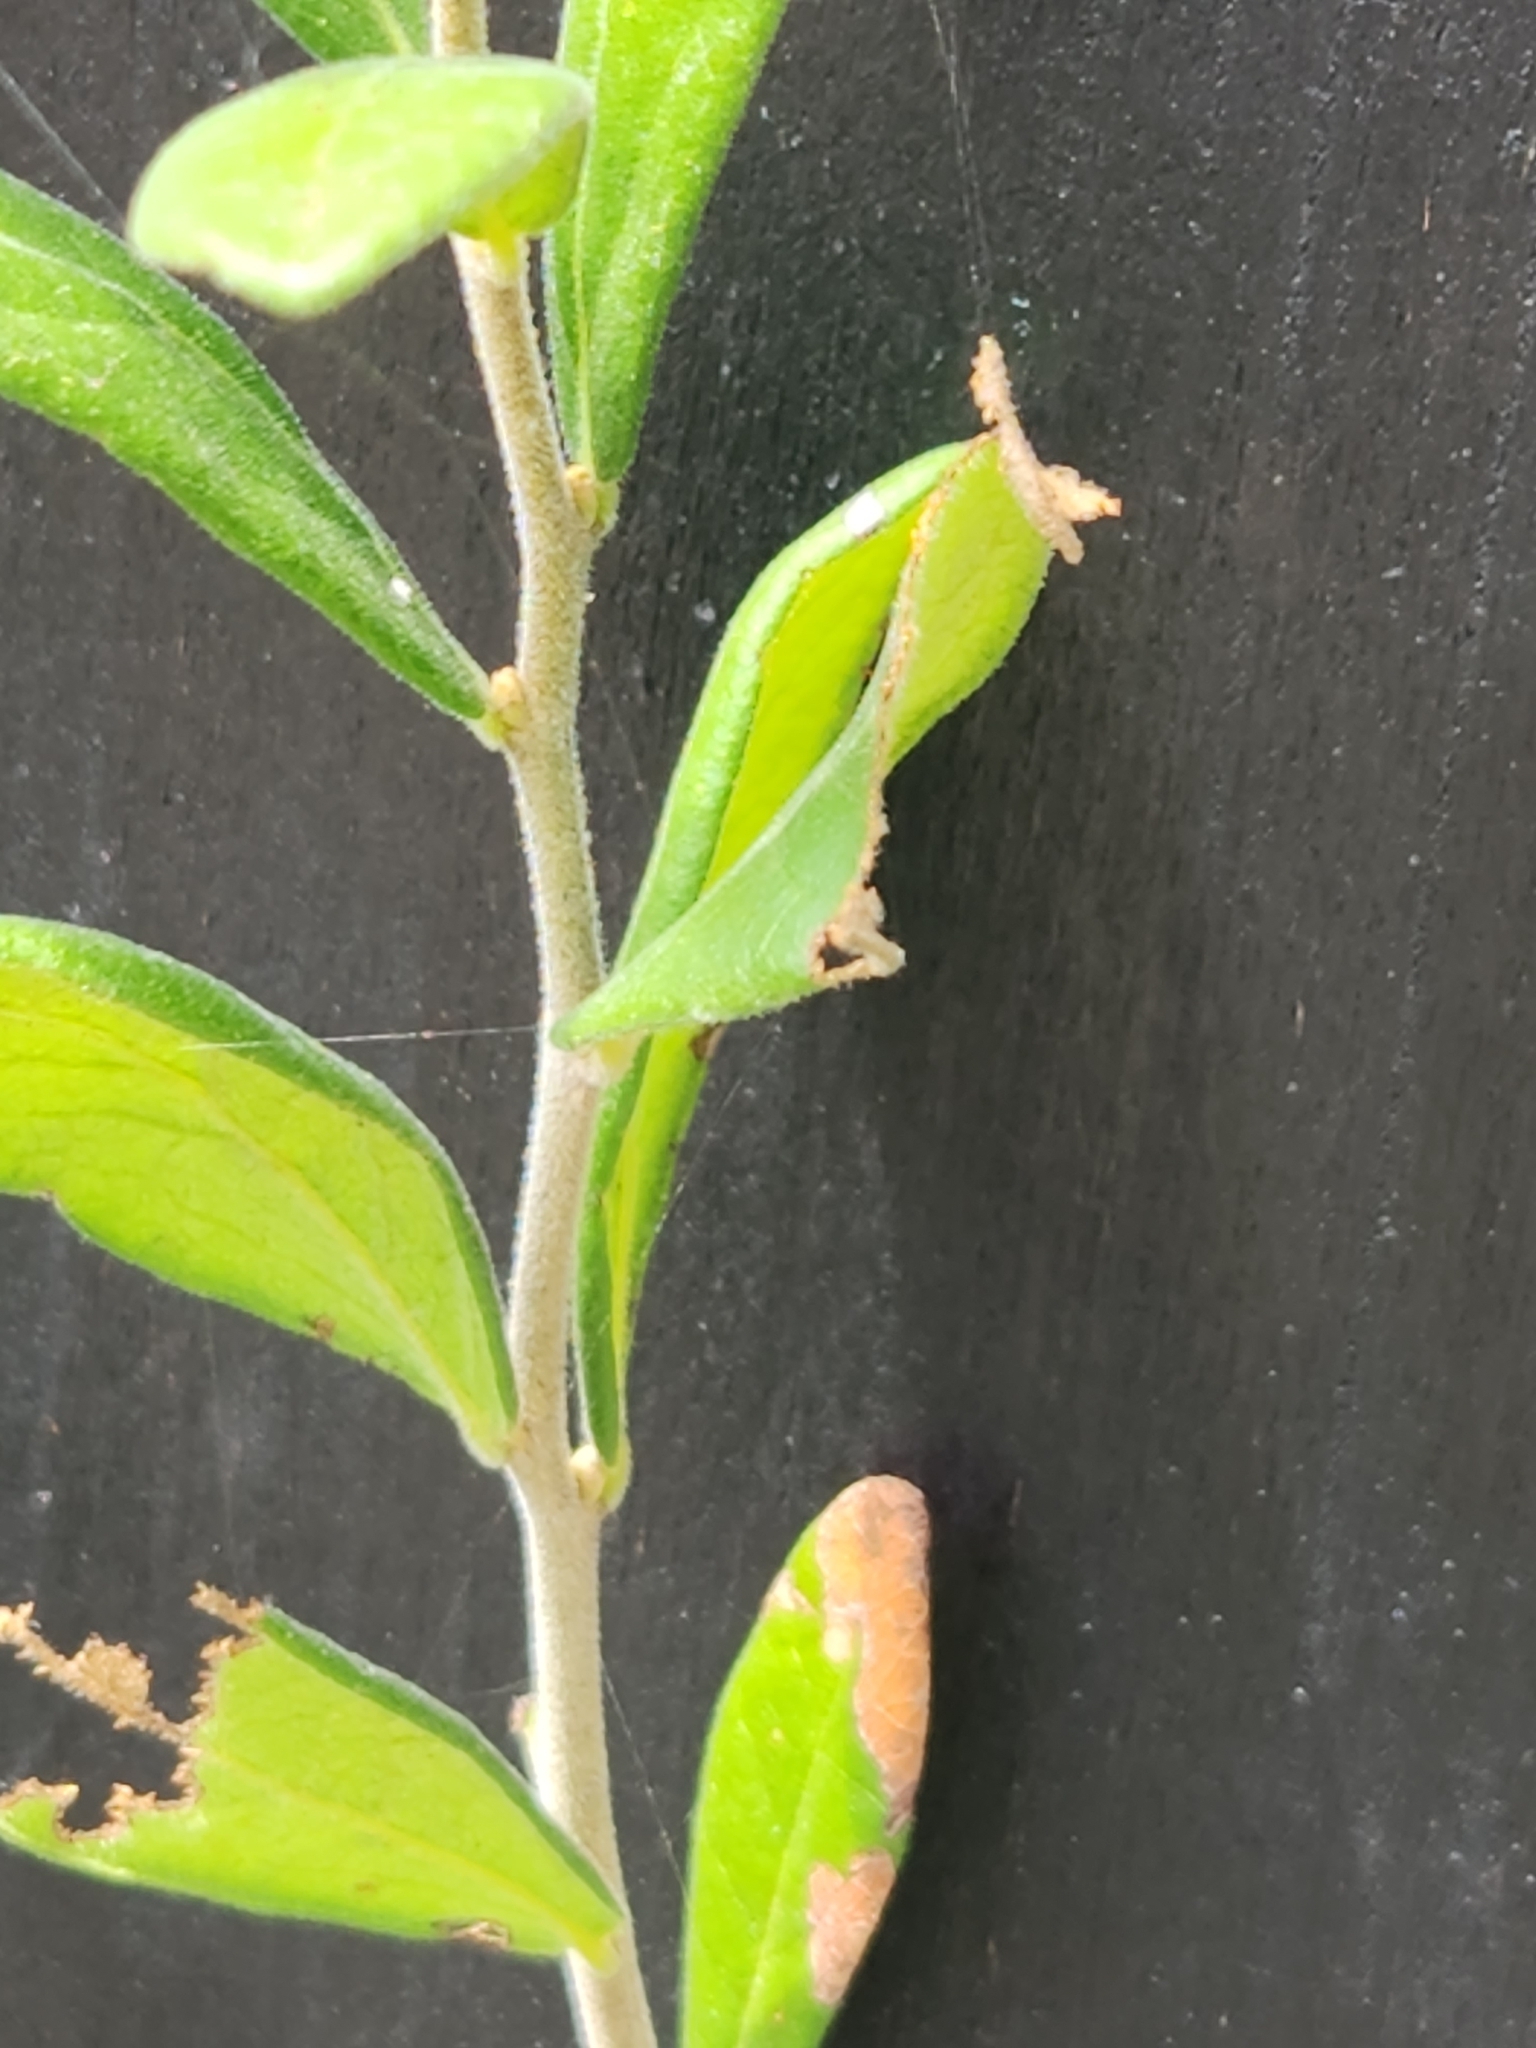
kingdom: Plantae
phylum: Tracheophyta
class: Magnoliopsida
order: Ericales
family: Ebenaceae
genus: Diospyros
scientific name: Diospyros texana
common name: Texas persimmon
